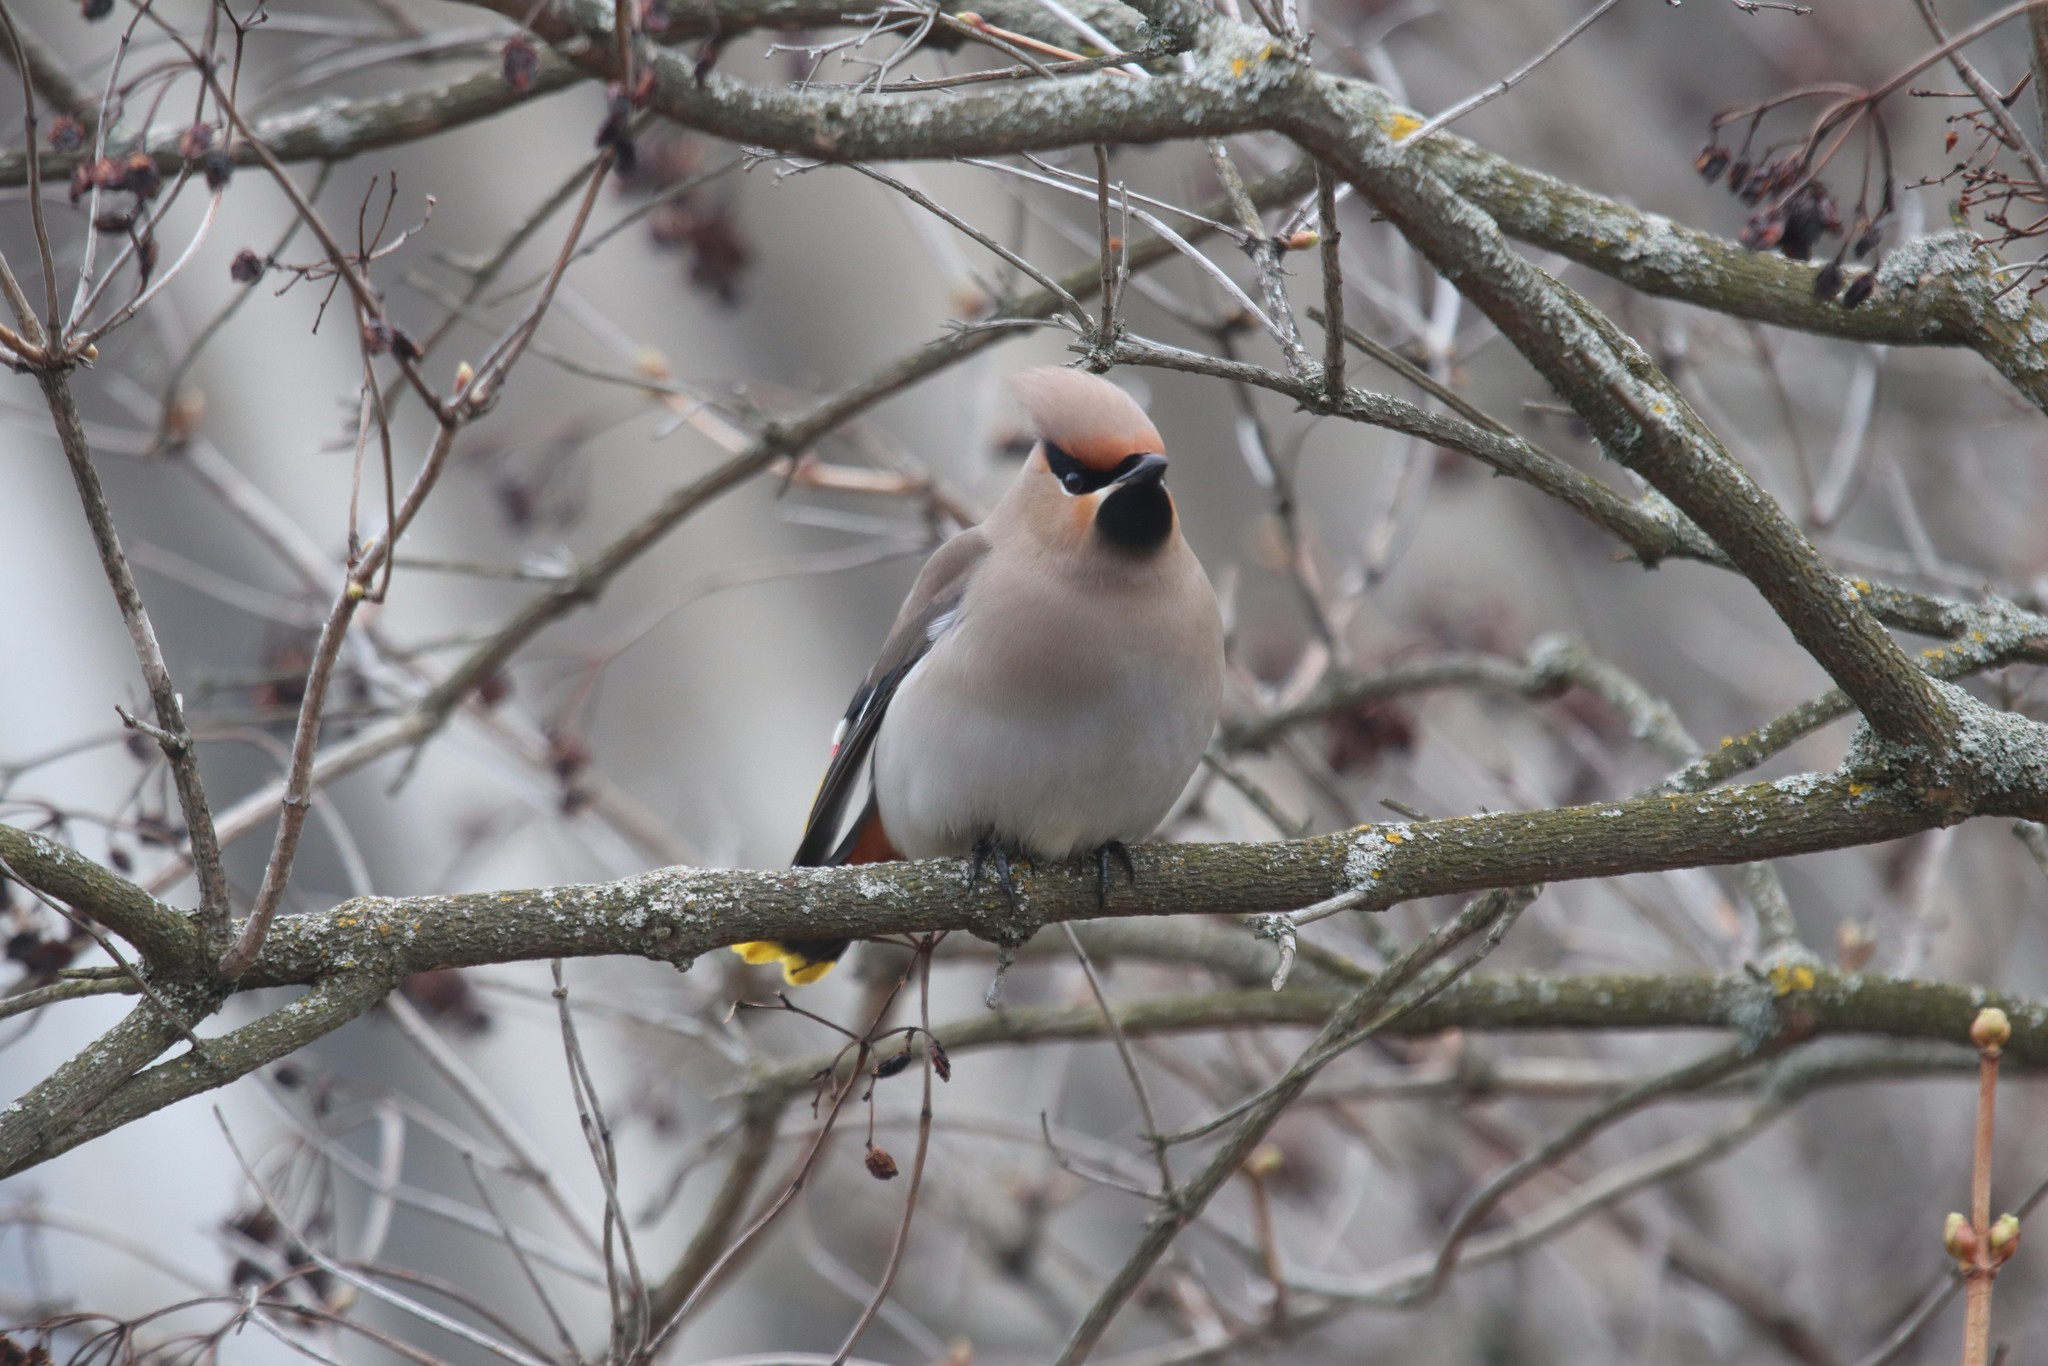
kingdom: Animalia
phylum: Chordata
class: Aves
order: Passeriformes
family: Bombycillidae
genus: Bombycilla
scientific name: Bombycilla garrulus
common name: Bohemian waxwing
